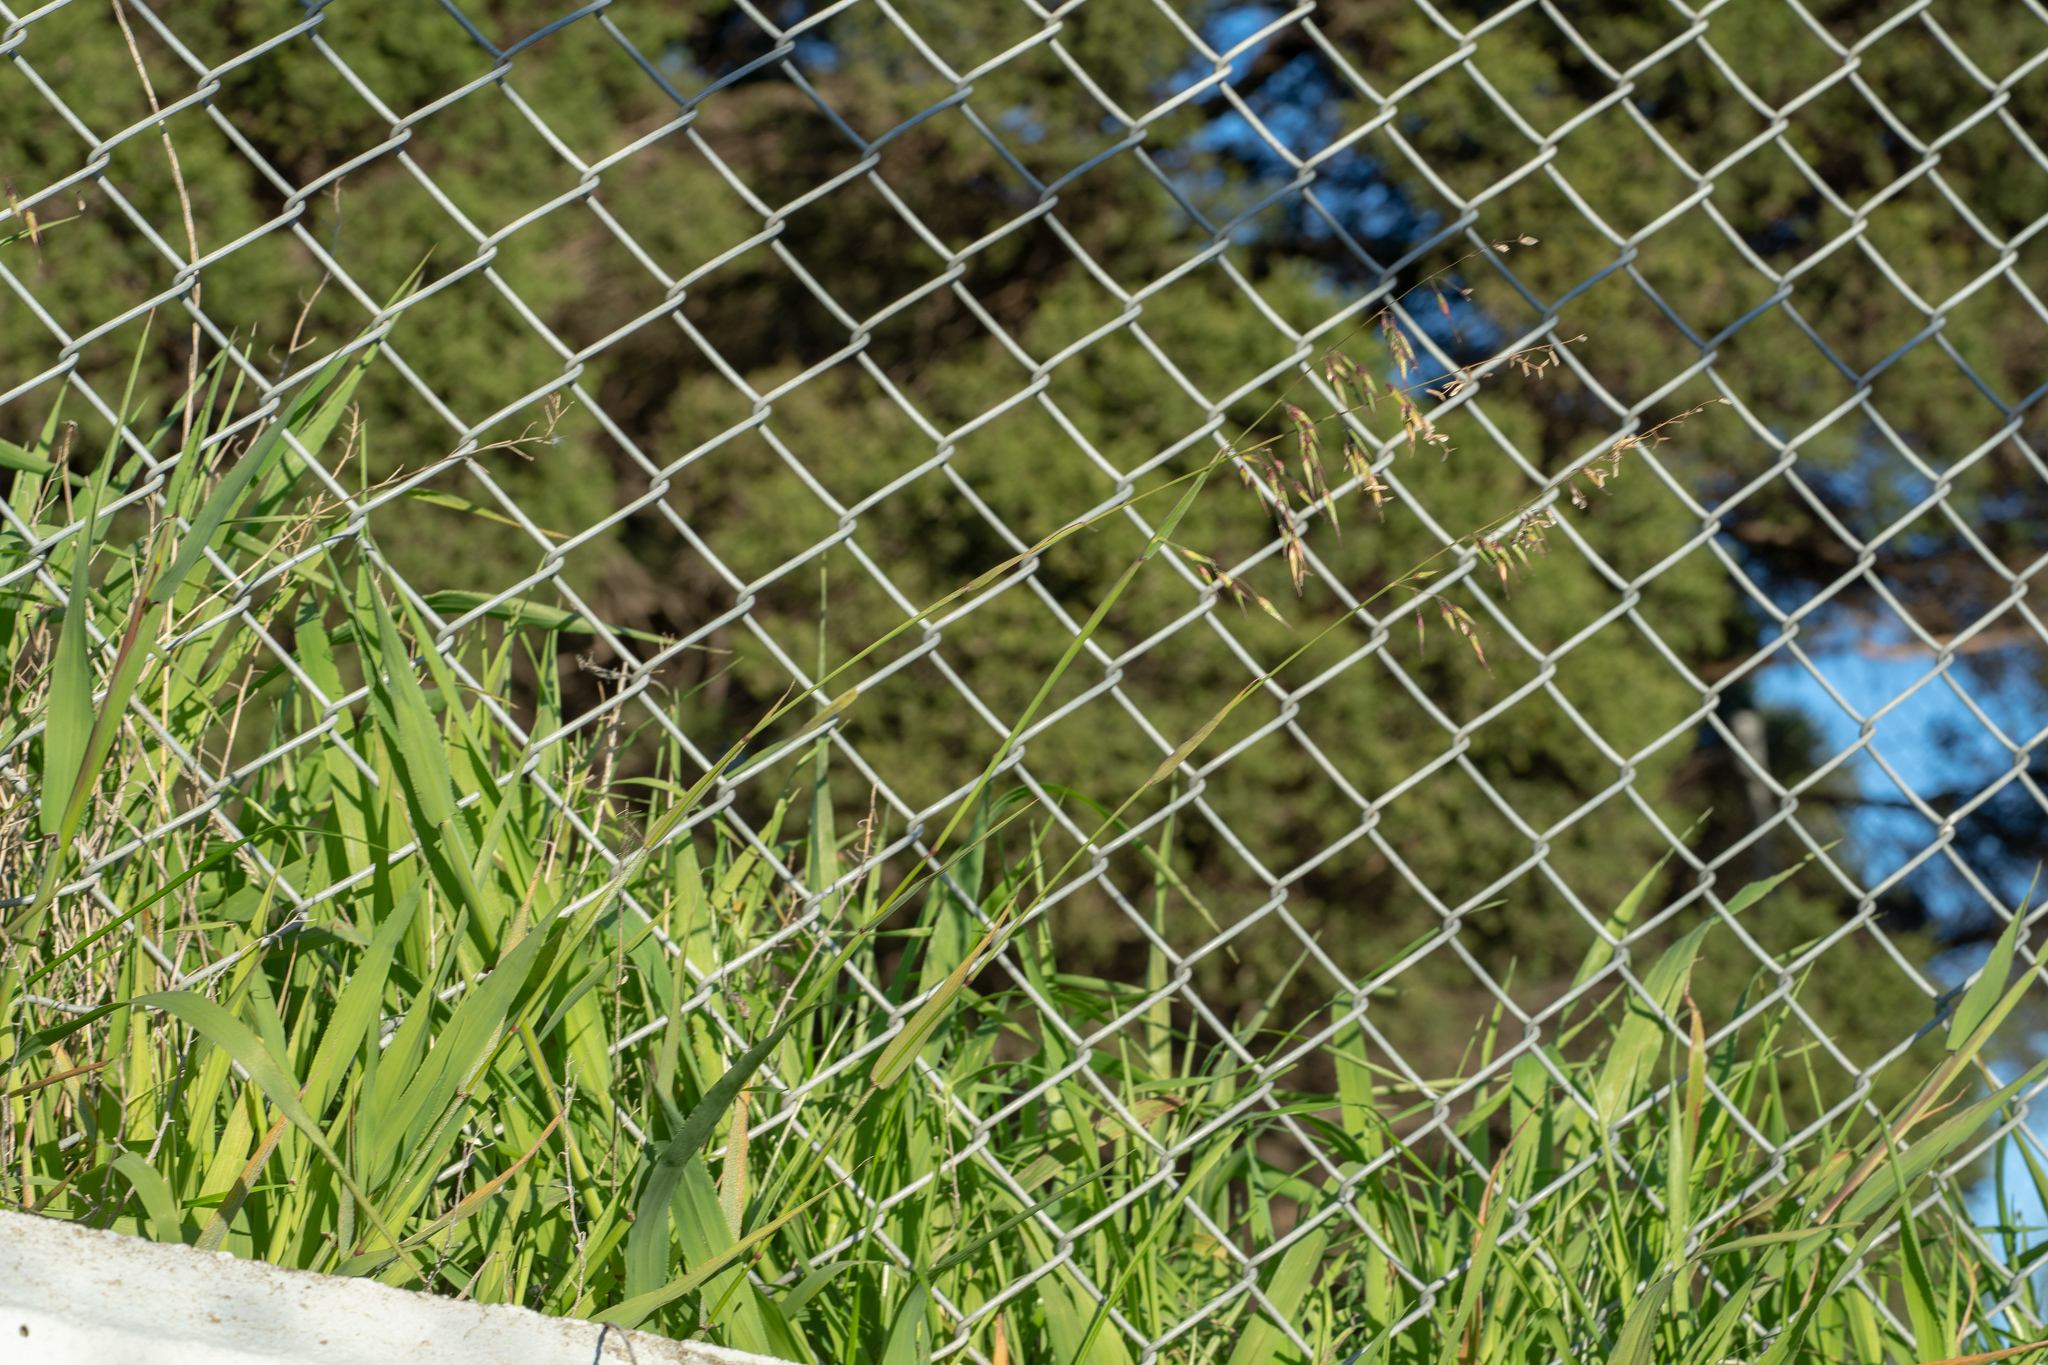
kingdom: Plantae
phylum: Tracheophyta
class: Liliopsida
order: Poales
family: Poaceae
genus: Ehrharta
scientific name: Ehrharta longiflora
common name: Longflowered veldtgrass
